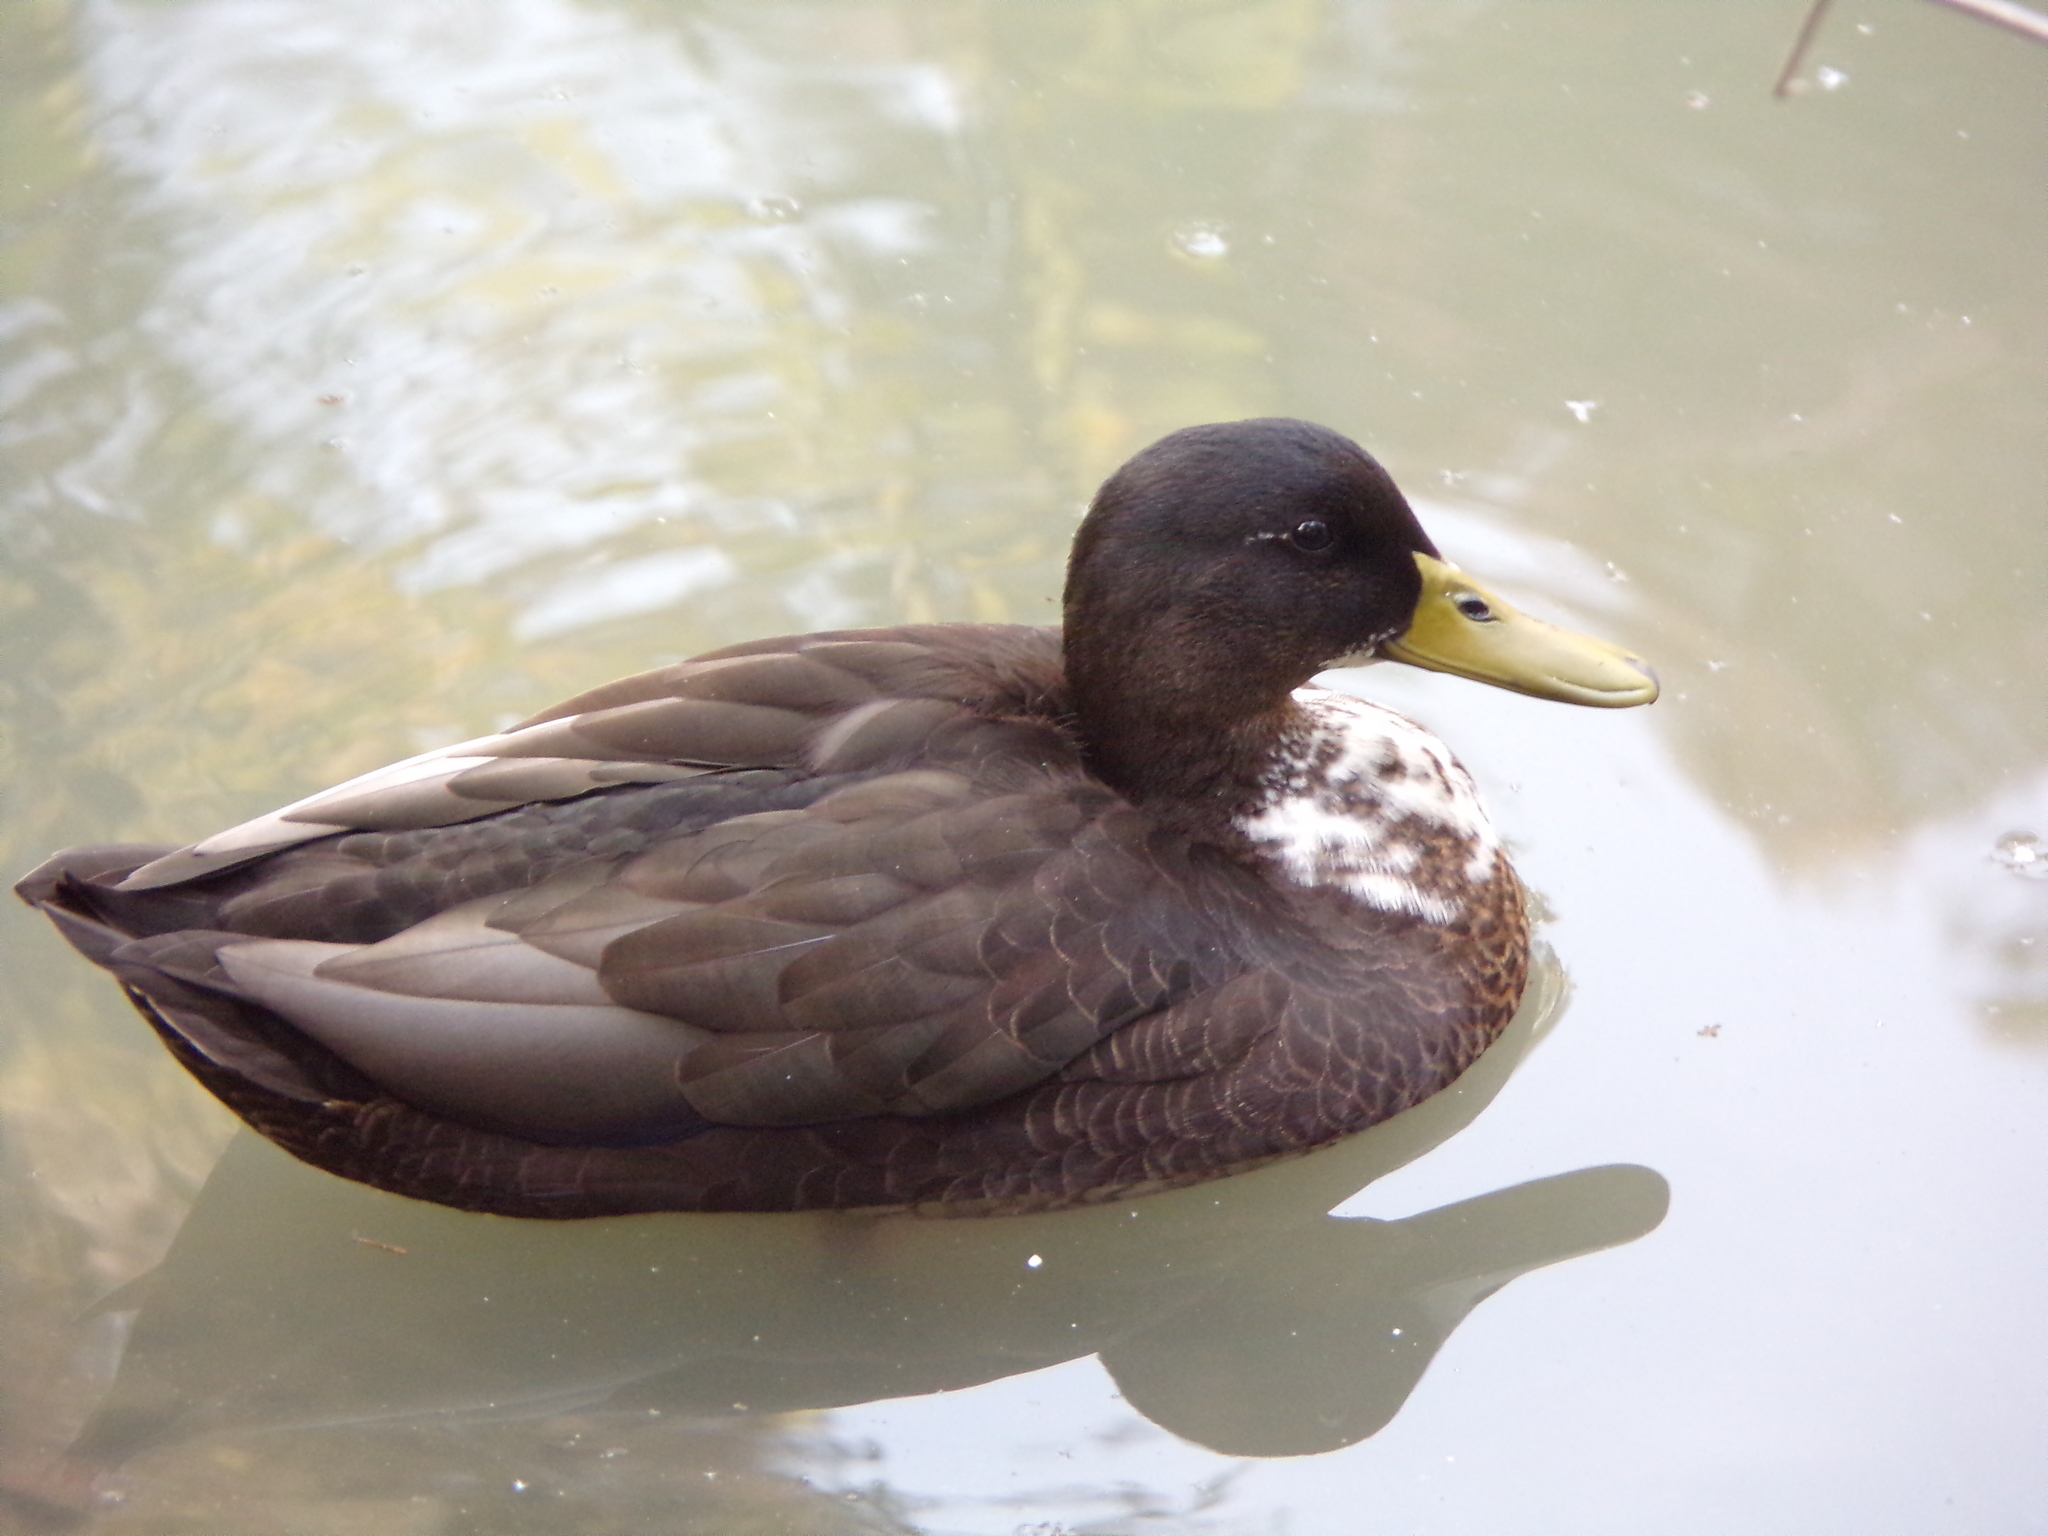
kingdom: Animalia
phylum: Chordata
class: Aves
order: Anseriformes
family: Anatidae
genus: Anas
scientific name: Anas platyrhynchos
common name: Mallard
